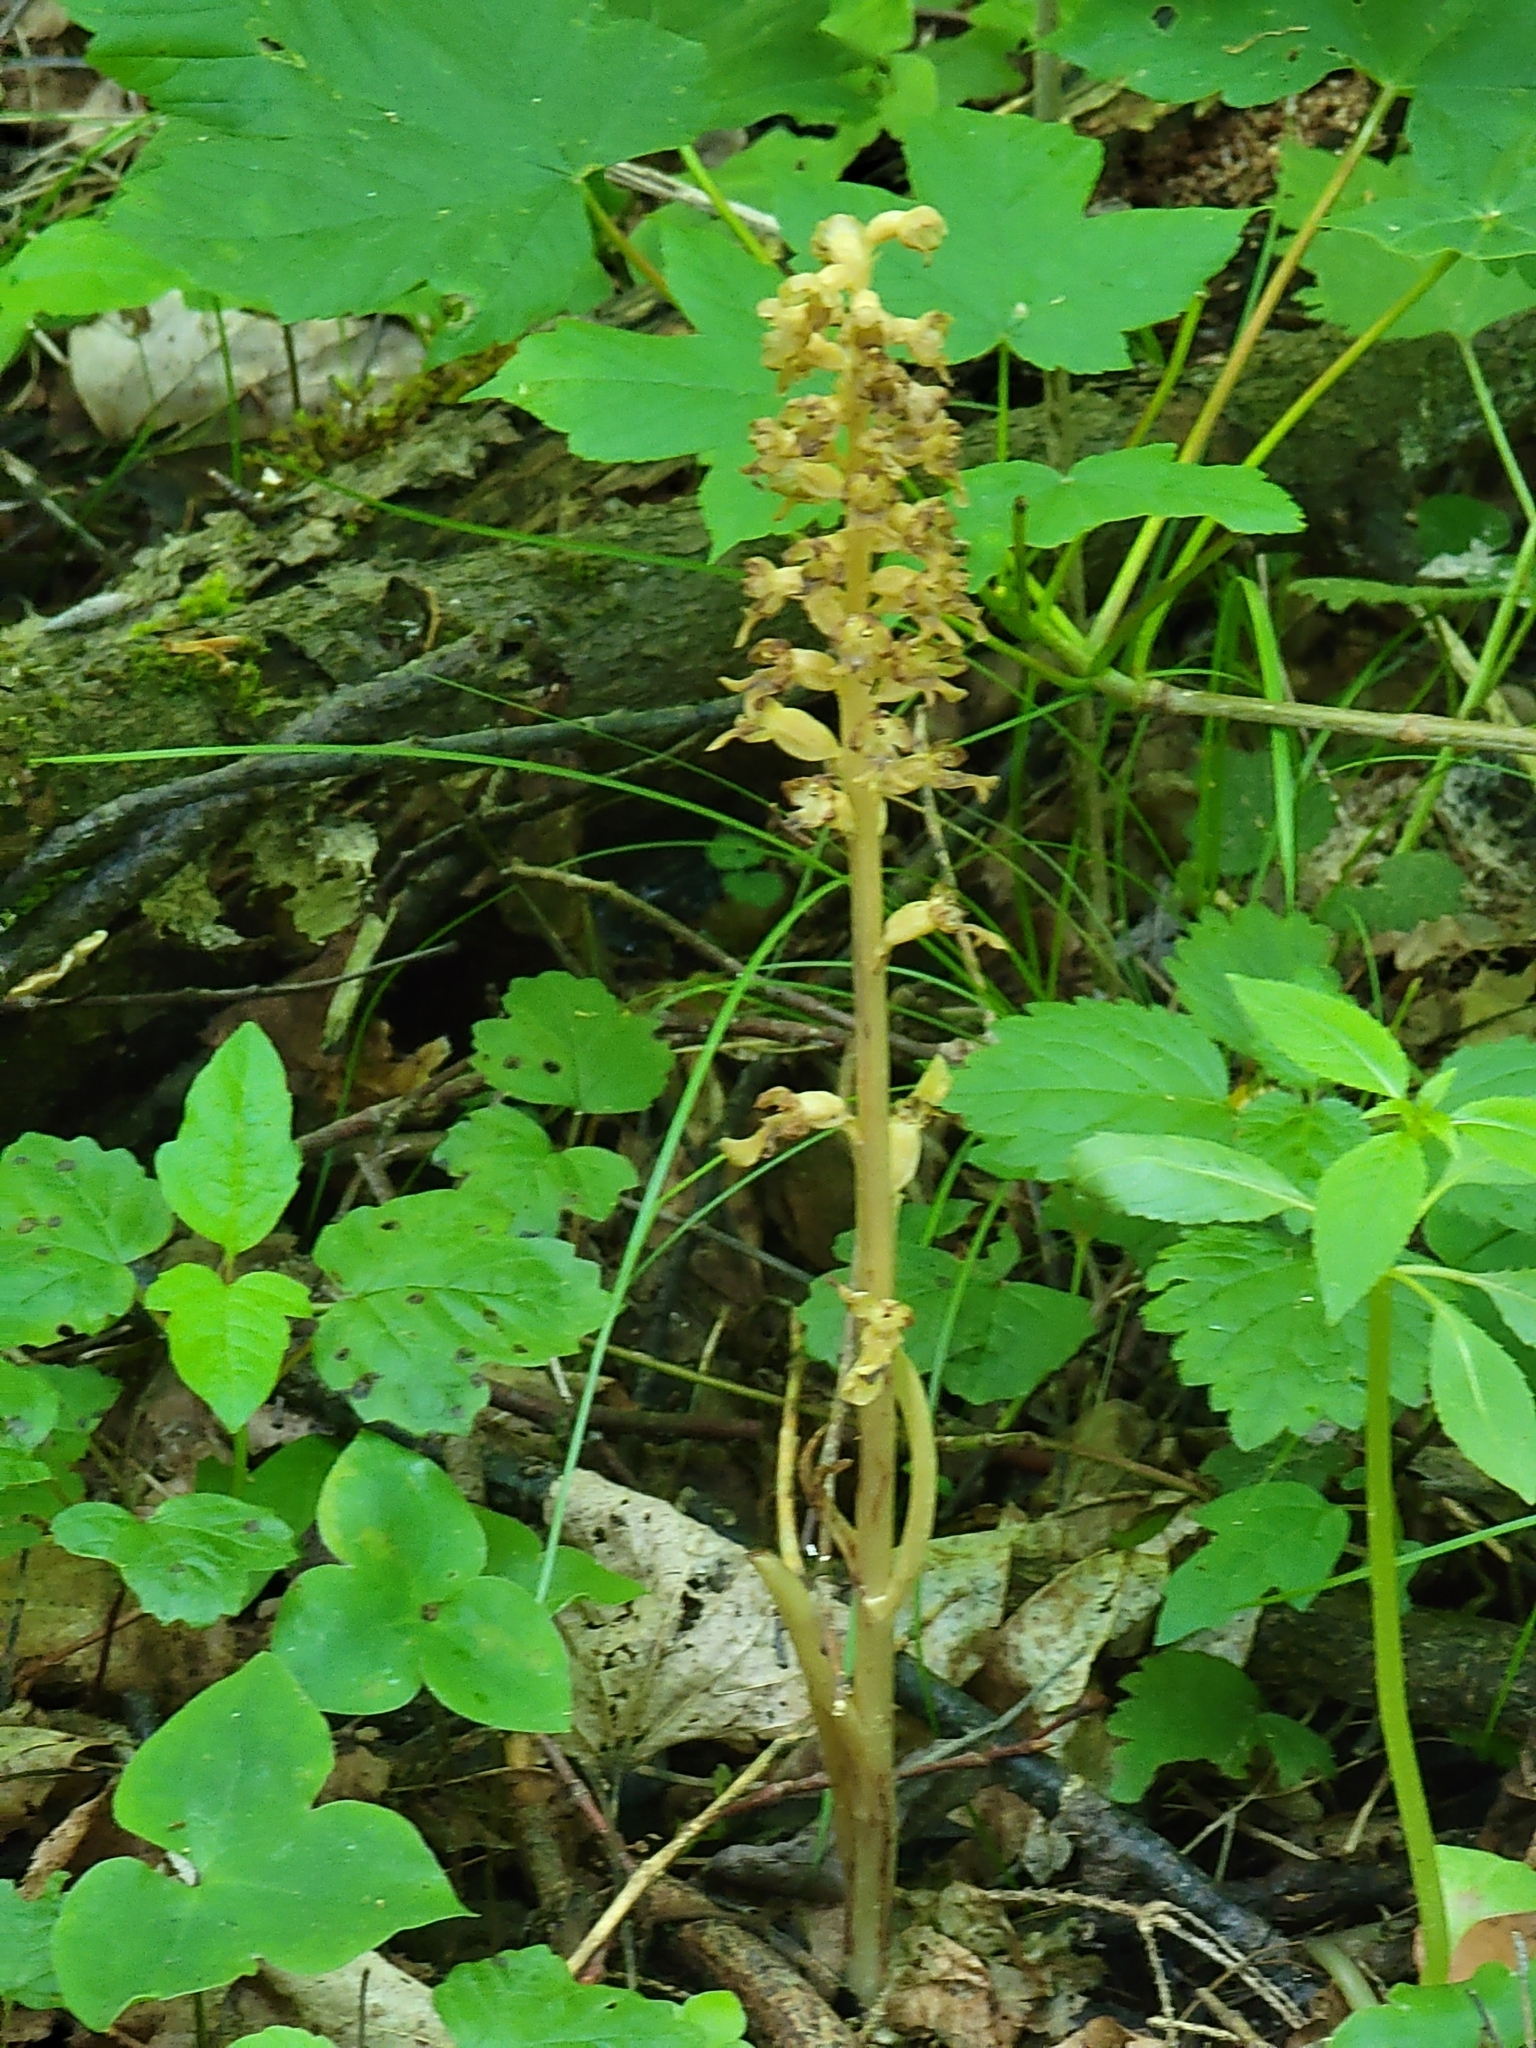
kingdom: Plantae
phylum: Tracheophyta
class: Liliopsida
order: Asparagales
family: Orchidaceae
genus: Neottia
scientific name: Neottia nidus-avis
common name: Bird's-nest orchid
